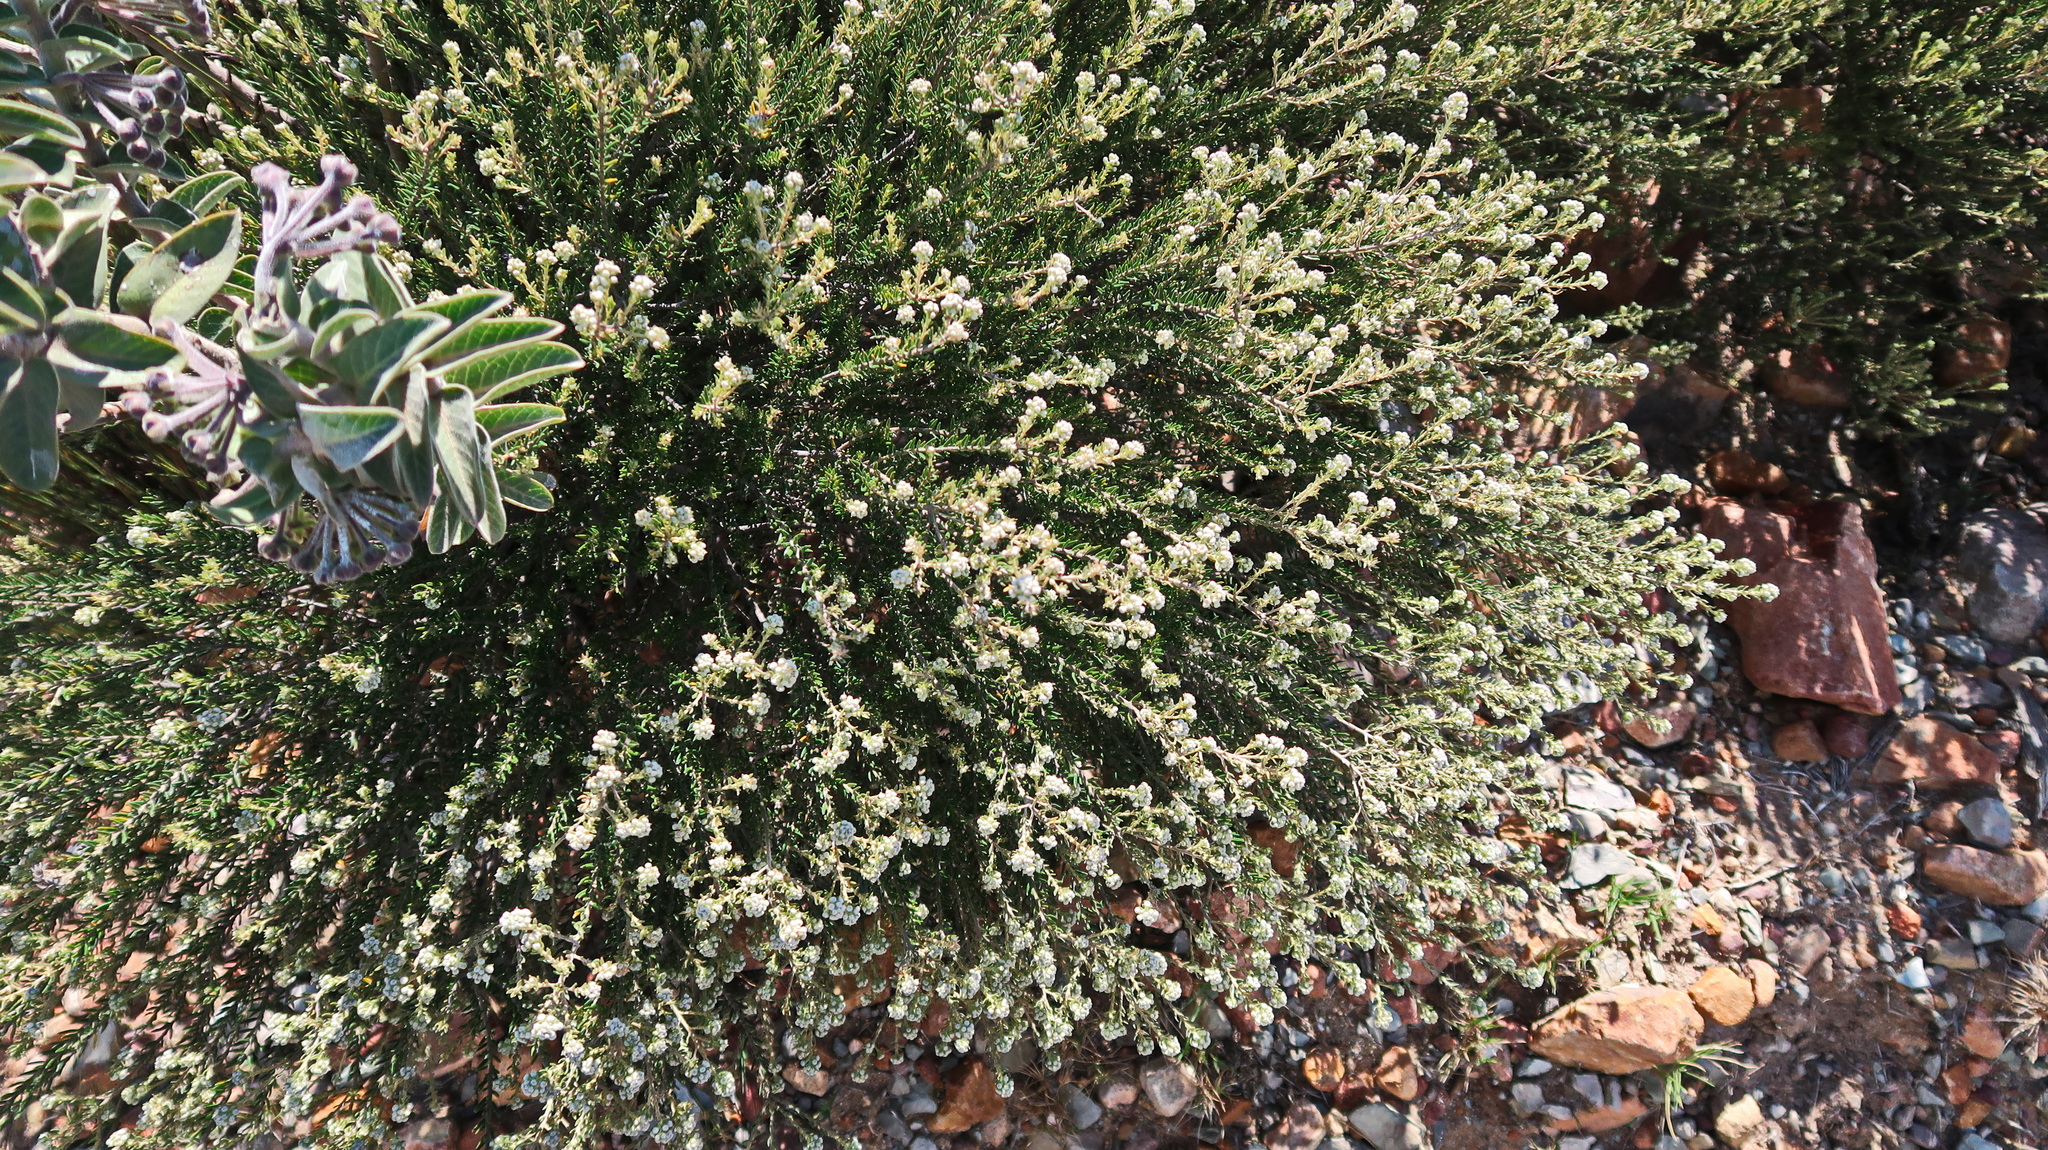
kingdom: Plantae
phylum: Tracheophyta
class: Magnoliopsida
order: Gentianales
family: Apocynaceae
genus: Gomphocarpus
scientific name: Gomphocarpus cancellatus
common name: Wild cotton
